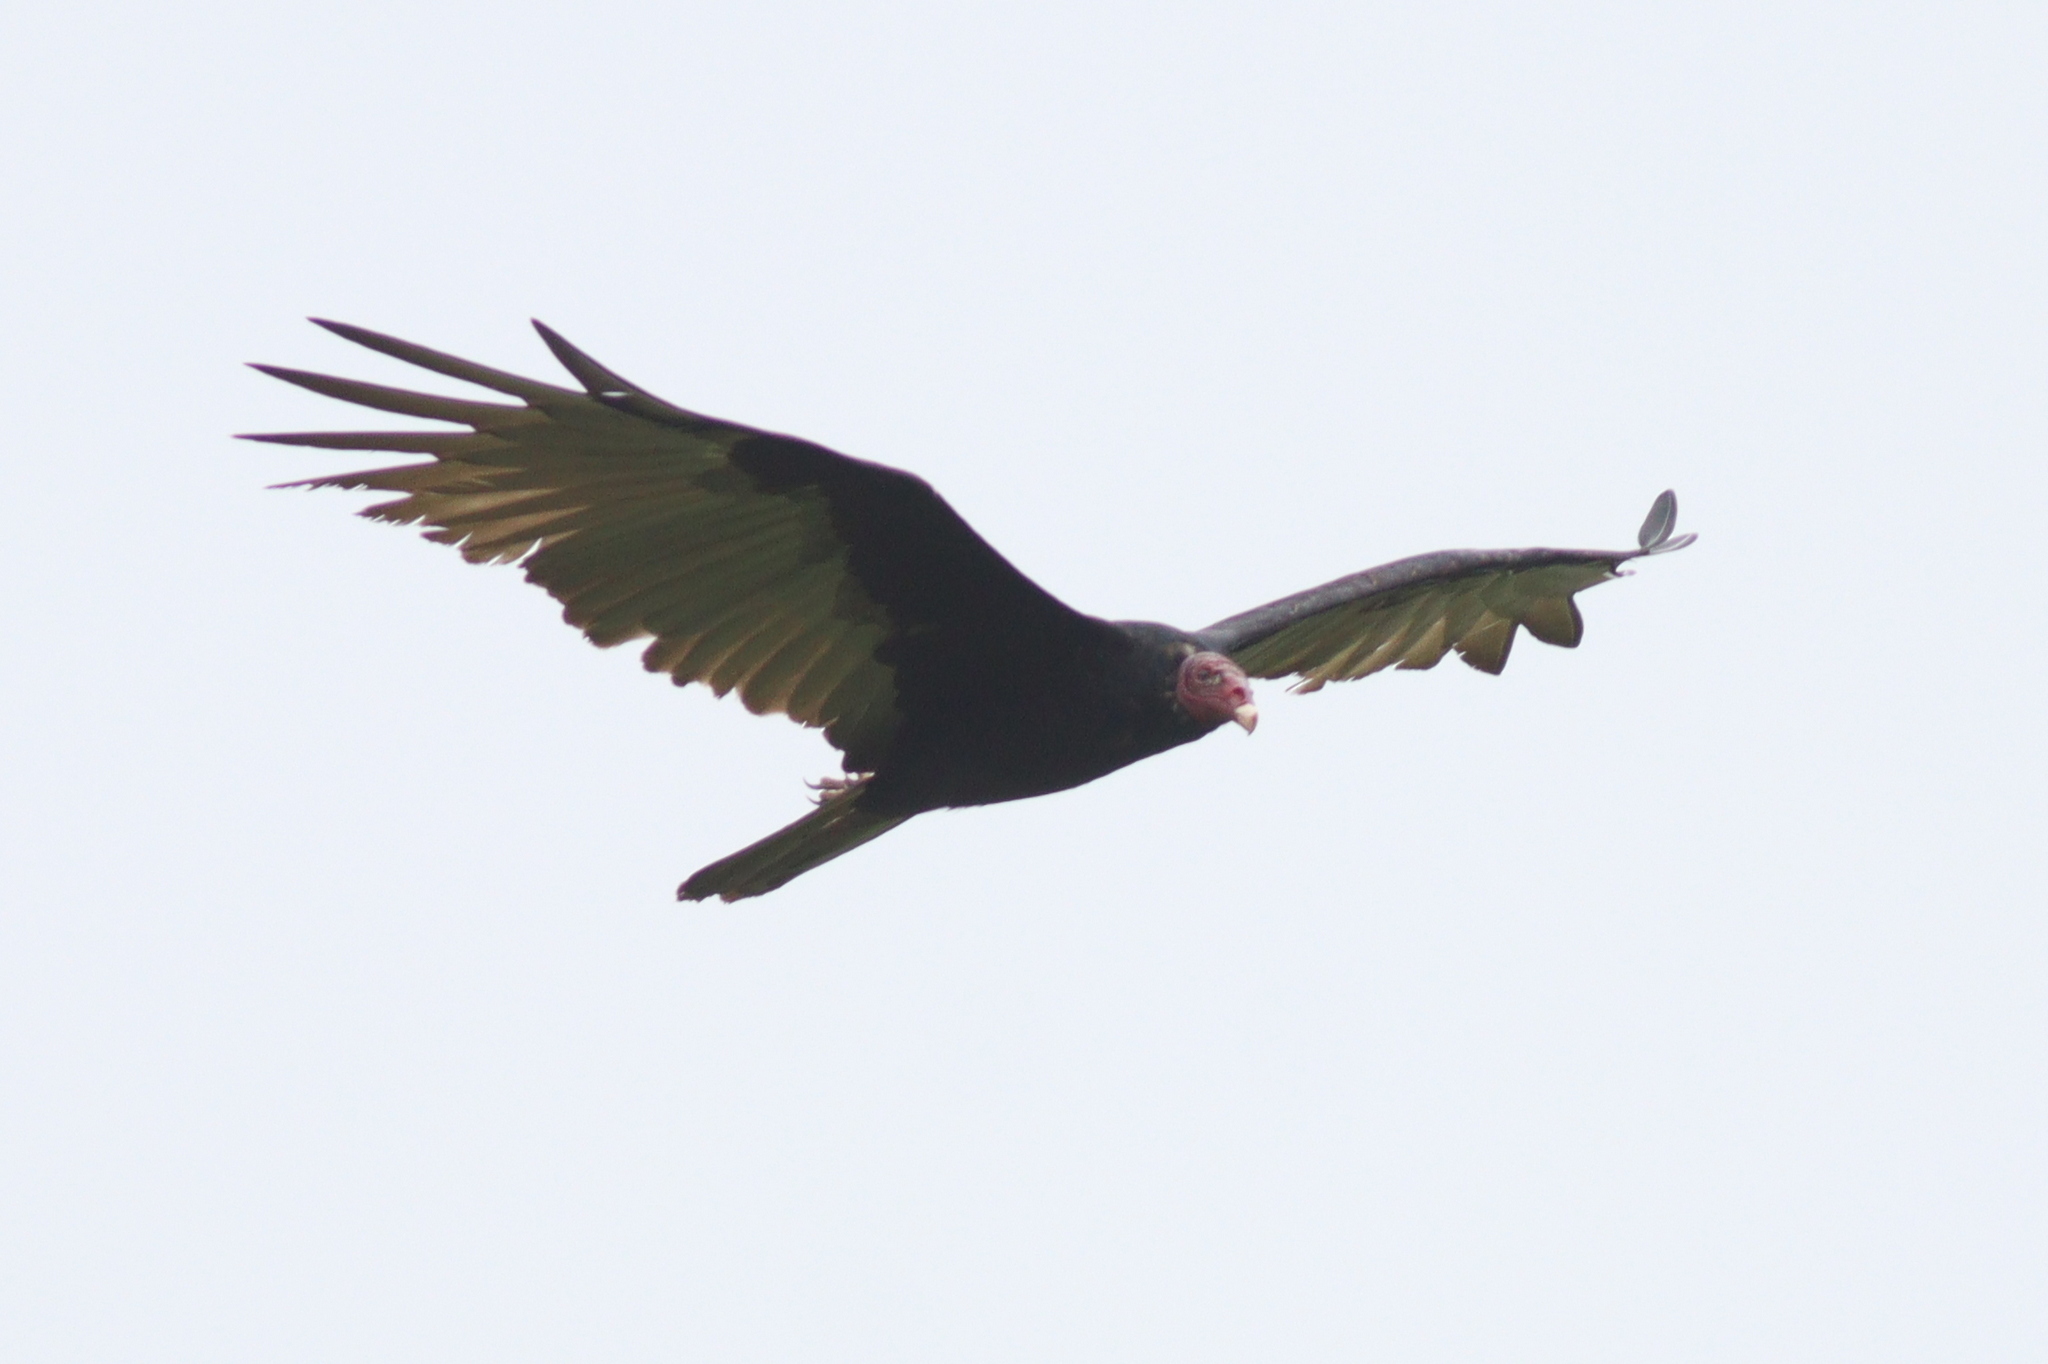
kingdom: Animalia
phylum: Chordata
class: Aves
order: Accipitriformes
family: Cathartidae
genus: Cathartes
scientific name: Cathartes aura
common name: Turkey vulture
